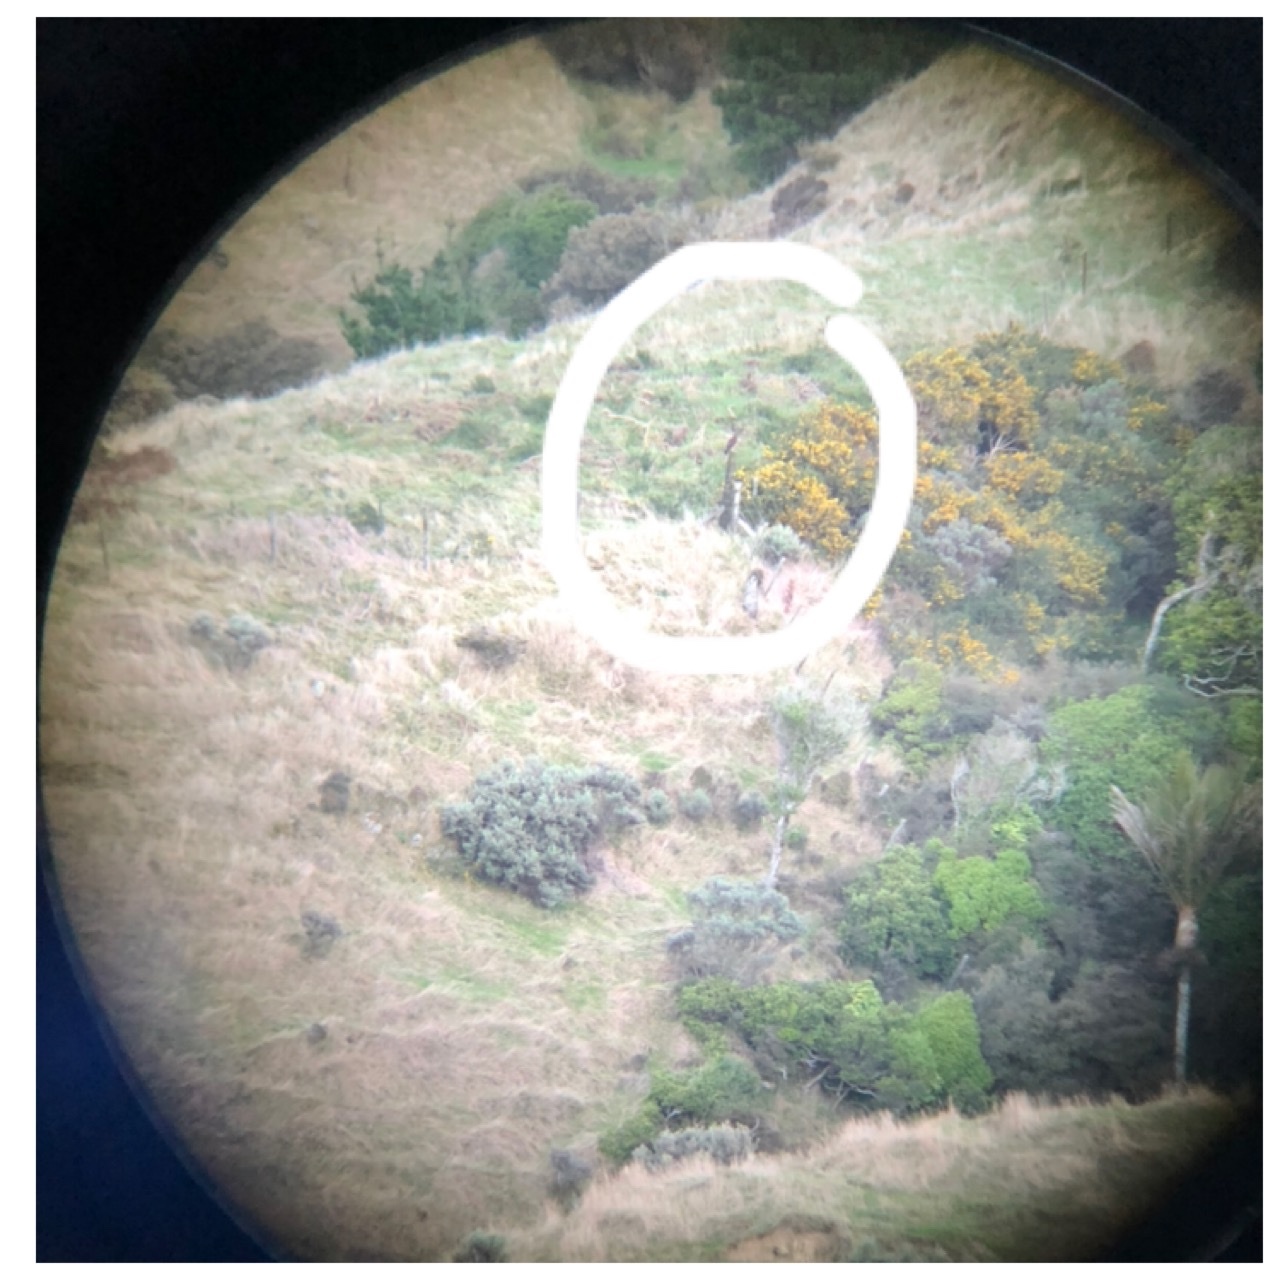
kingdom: Animalia
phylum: Chordata
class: Aves
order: Accipitriformes
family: Accipitridae
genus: Circus
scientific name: Circus approximans
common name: Swamp harrier
